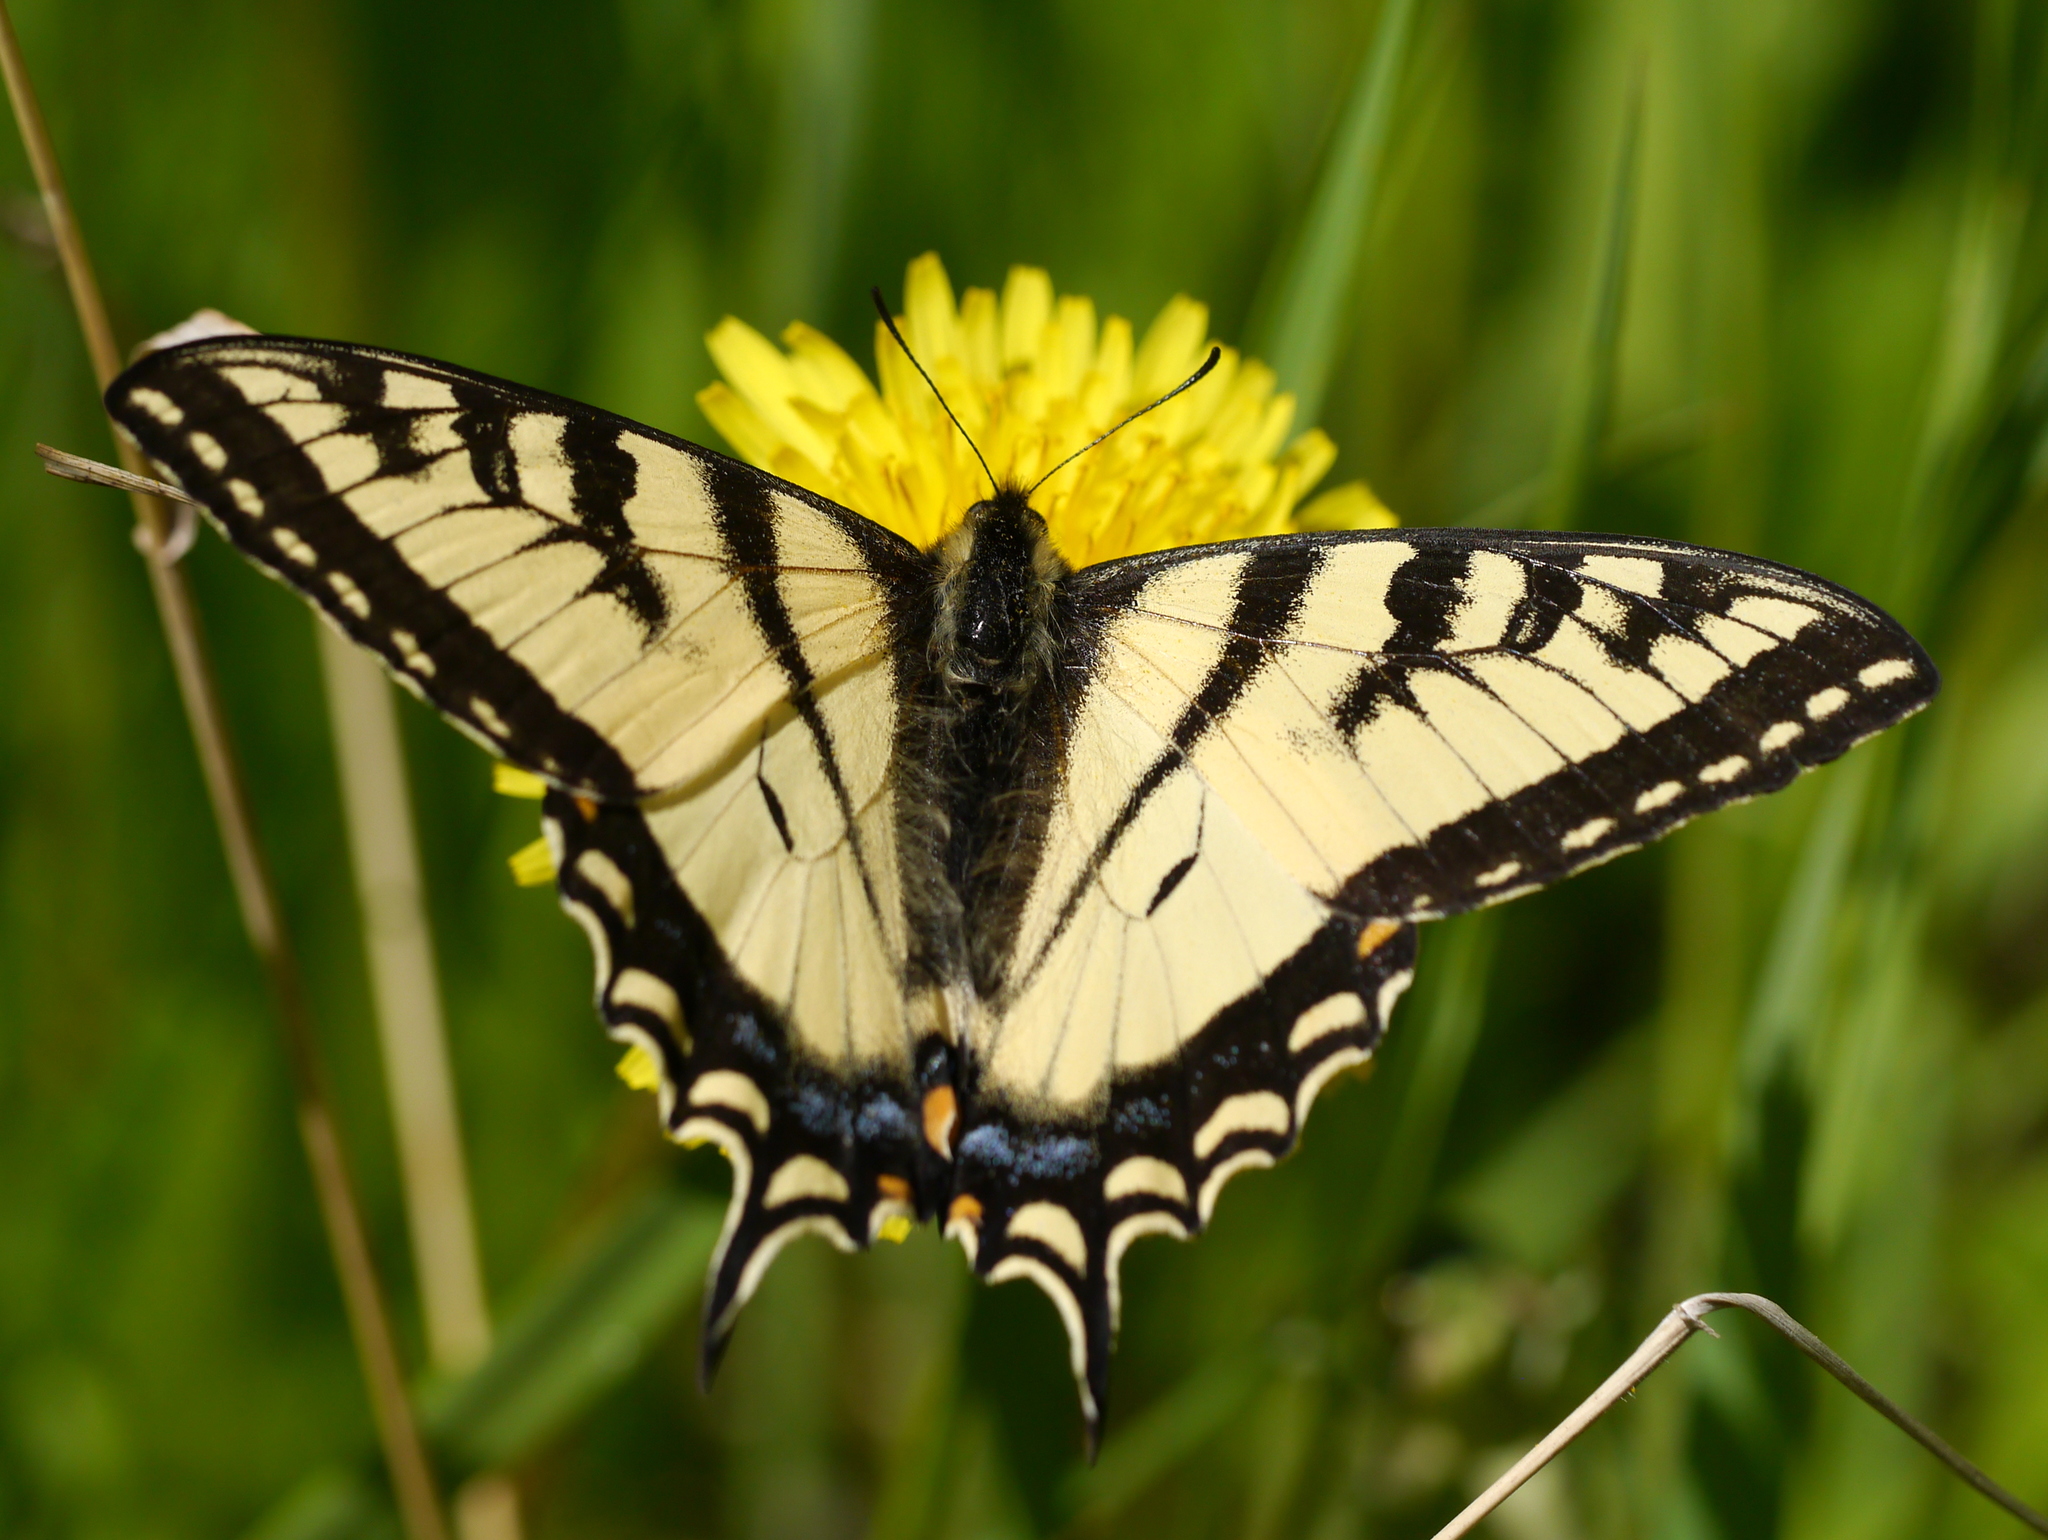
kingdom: Animalia
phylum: Arthropoda
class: Insecta
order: Lepidoptera
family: Papilionidae
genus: Papilio
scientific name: Papilio canadensis
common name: Canadian tiger swallowtail
